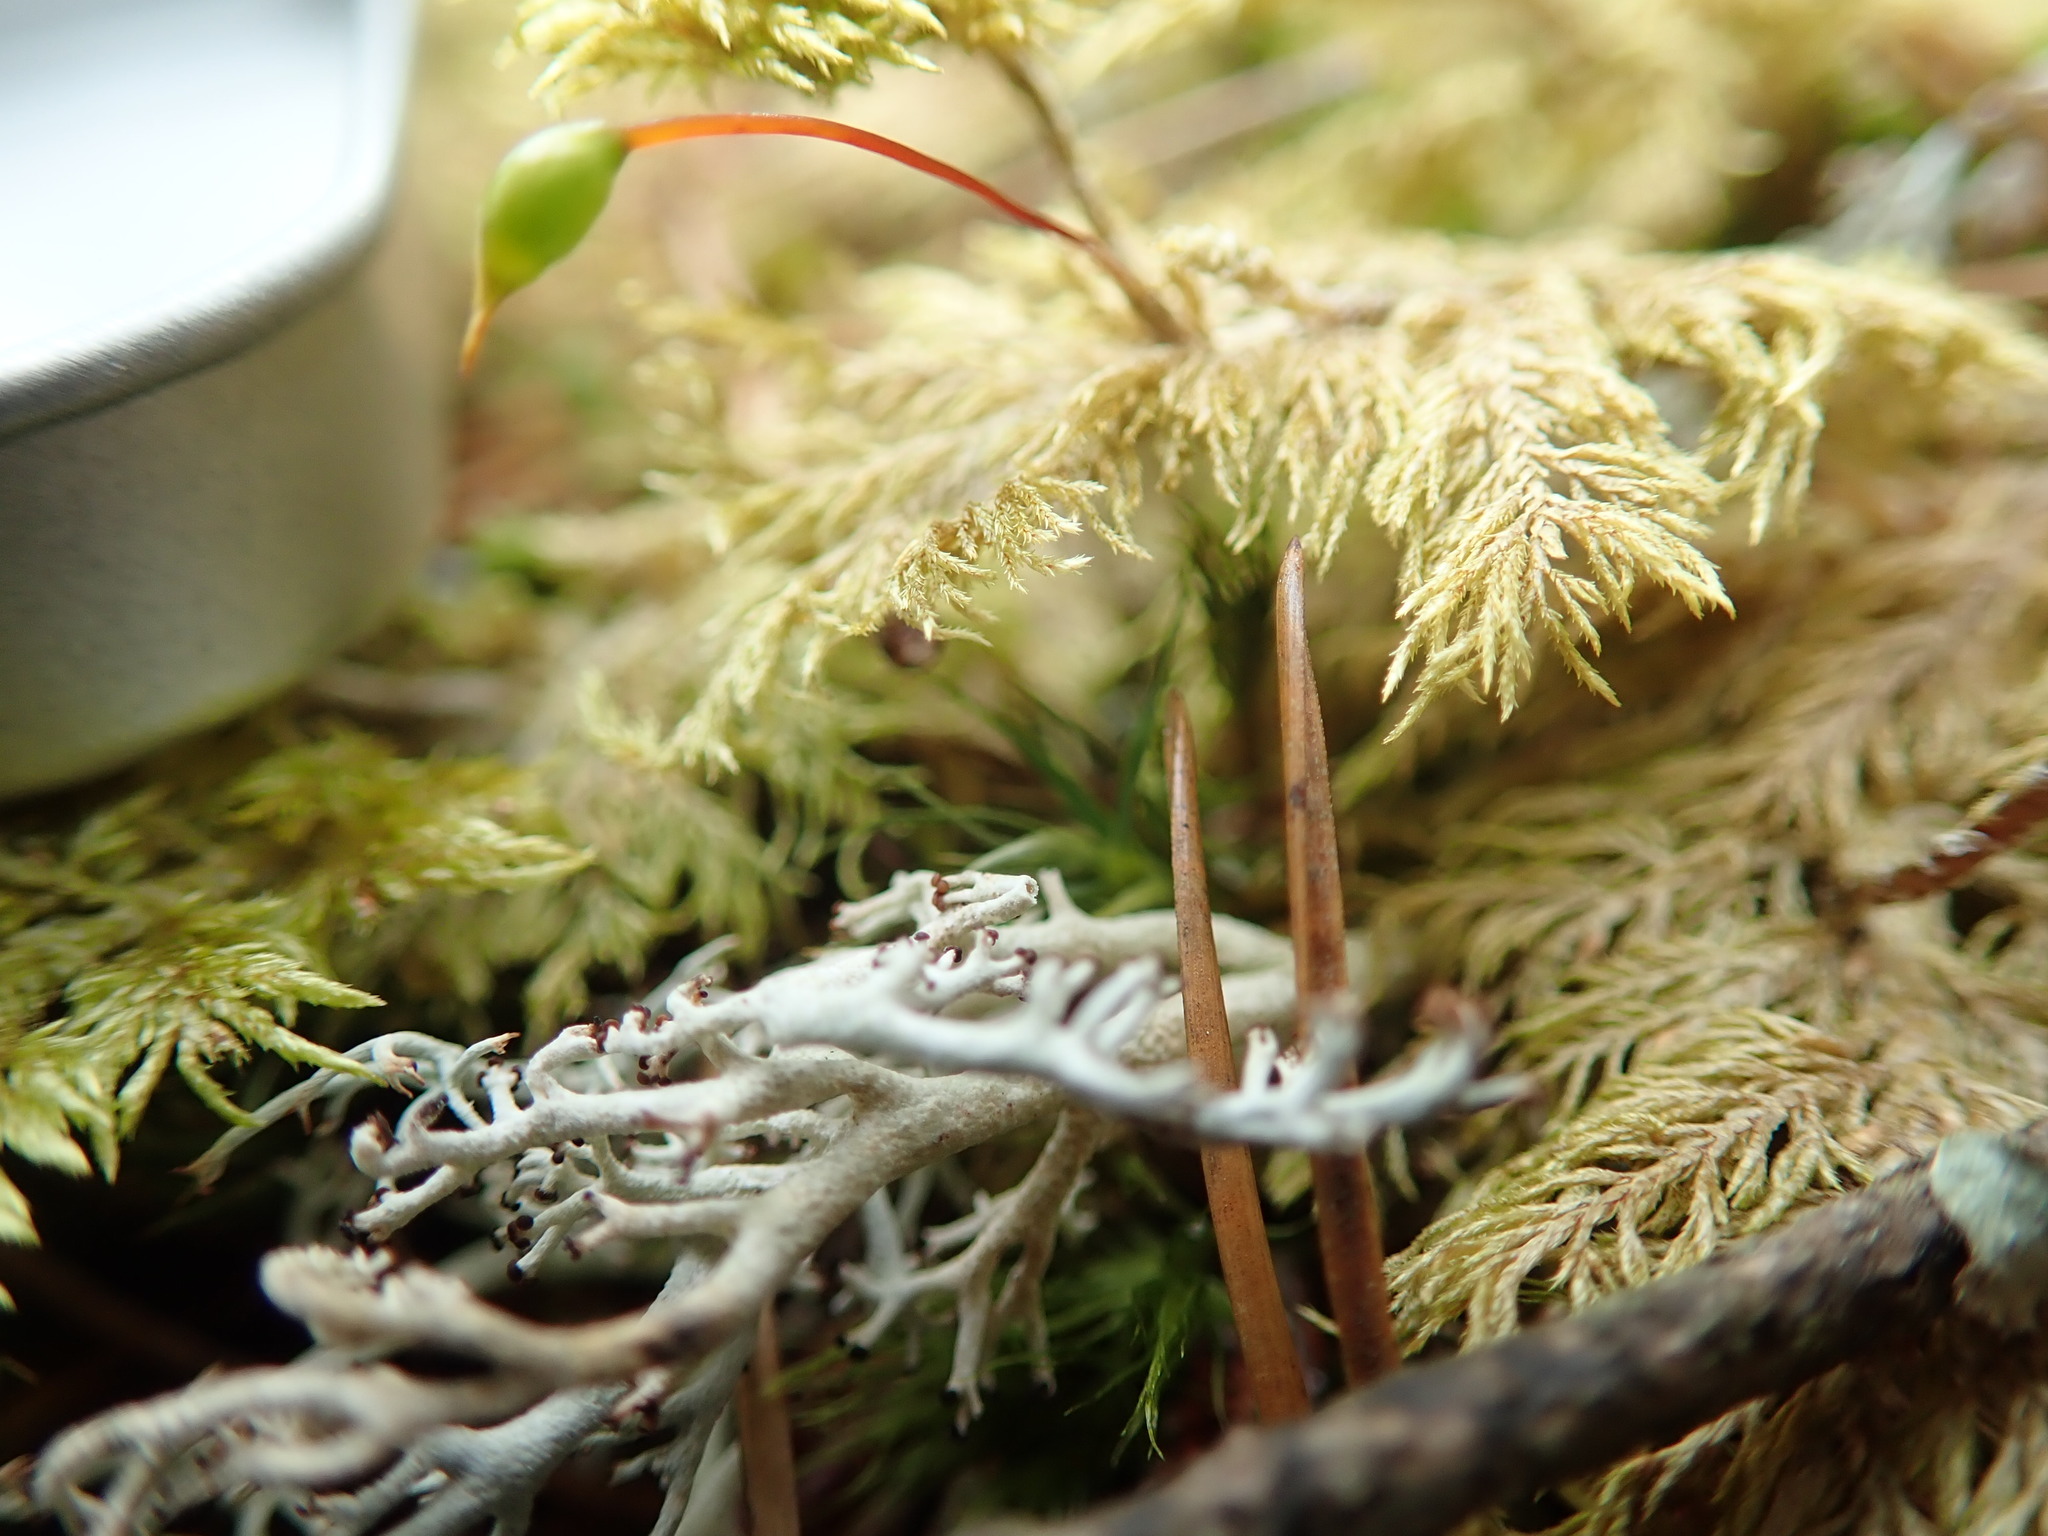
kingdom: Plantae
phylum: Bryophyta
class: Bryopsida
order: Hypnales
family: Hylocomiaceae
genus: Hylocomium
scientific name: Hylocomium splendens
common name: Stairstep moss
